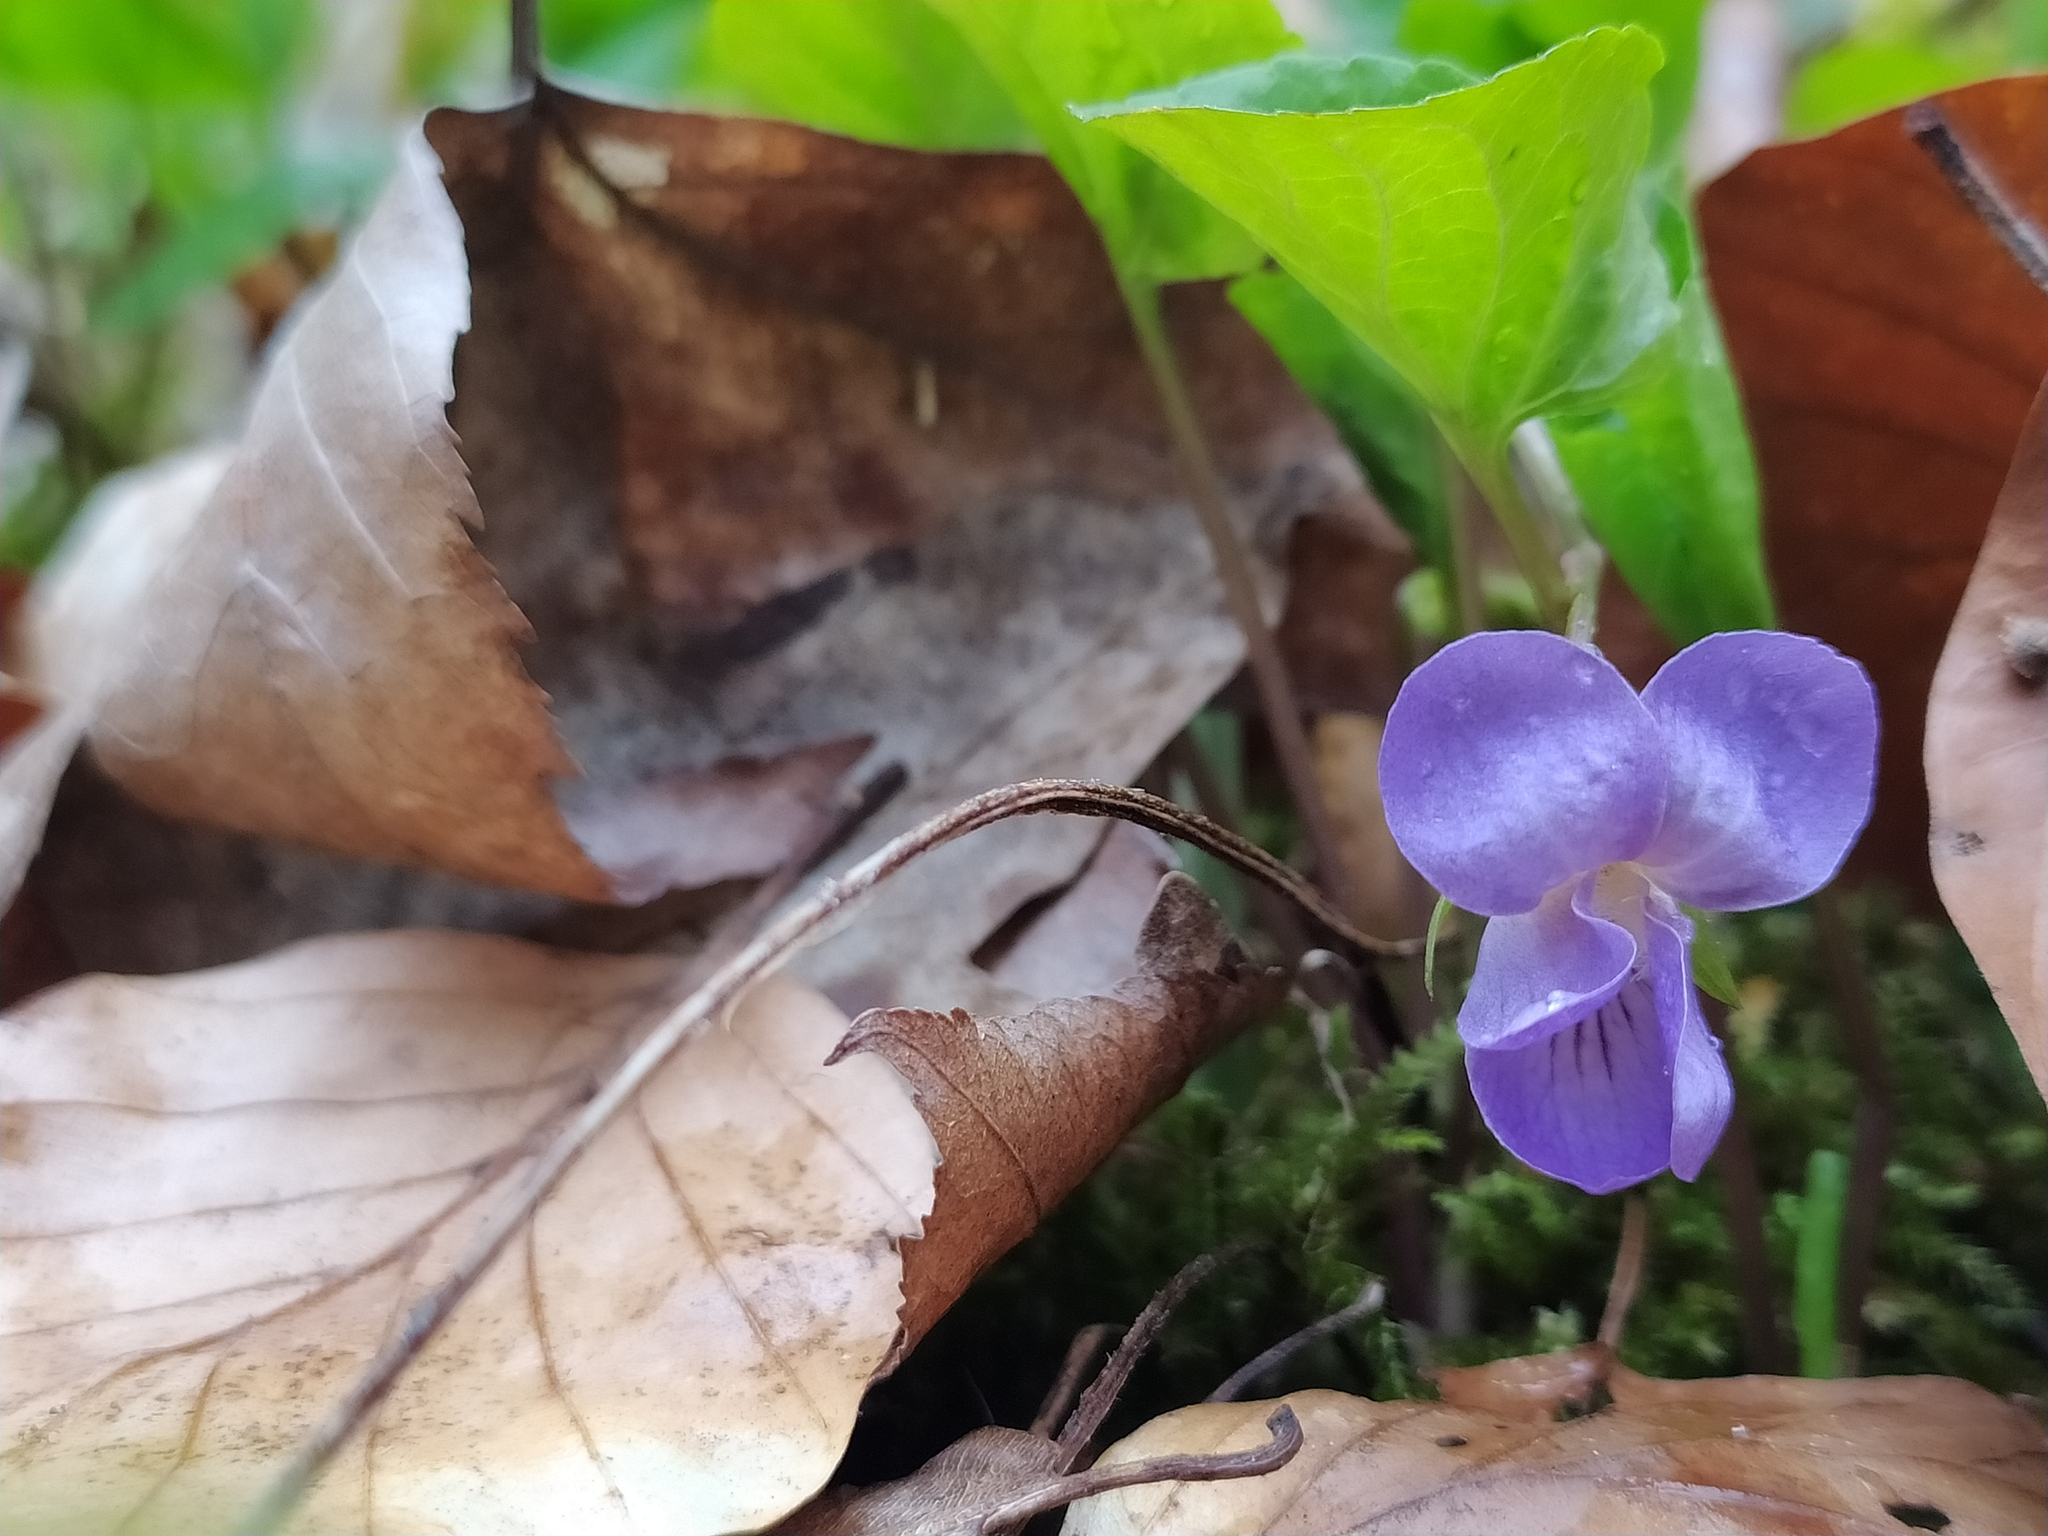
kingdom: Plantae
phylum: Tracheophyta
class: Magnoliopsida
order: Malpighiales
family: Violaceae
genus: Viola
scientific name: Viola mirabilis
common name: Wonder violet
